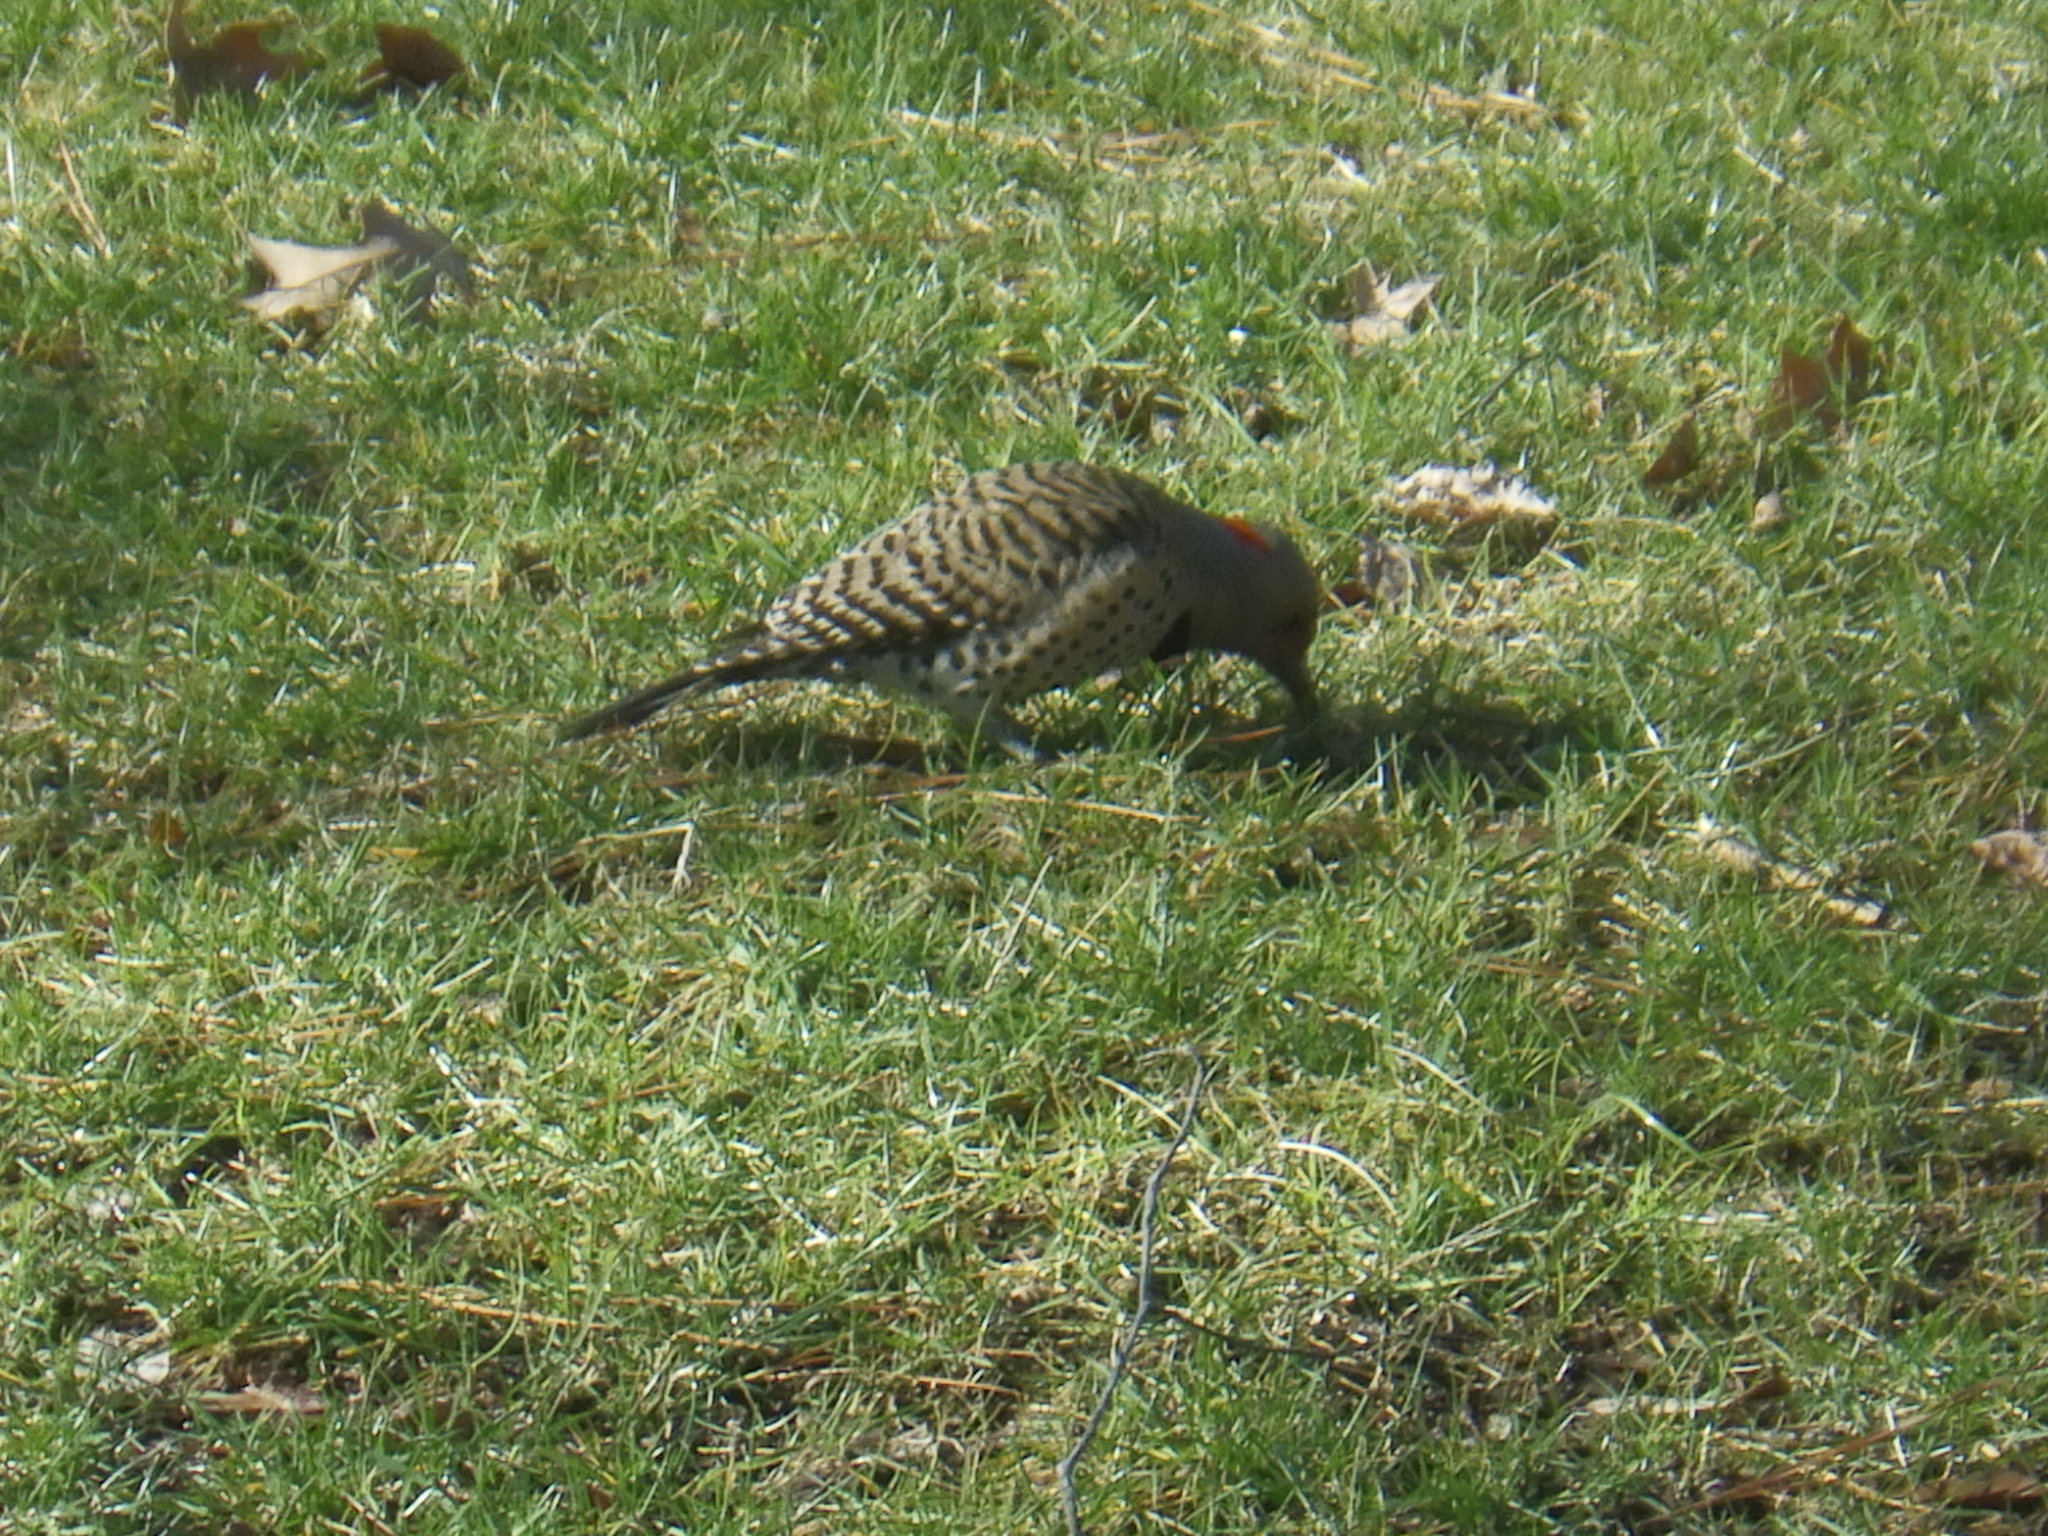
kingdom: Animalia
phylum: Chordata
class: Aves
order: Piciformes
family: Picidae
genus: Colaptes
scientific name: Colaptes auratus
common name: Northern flicker
